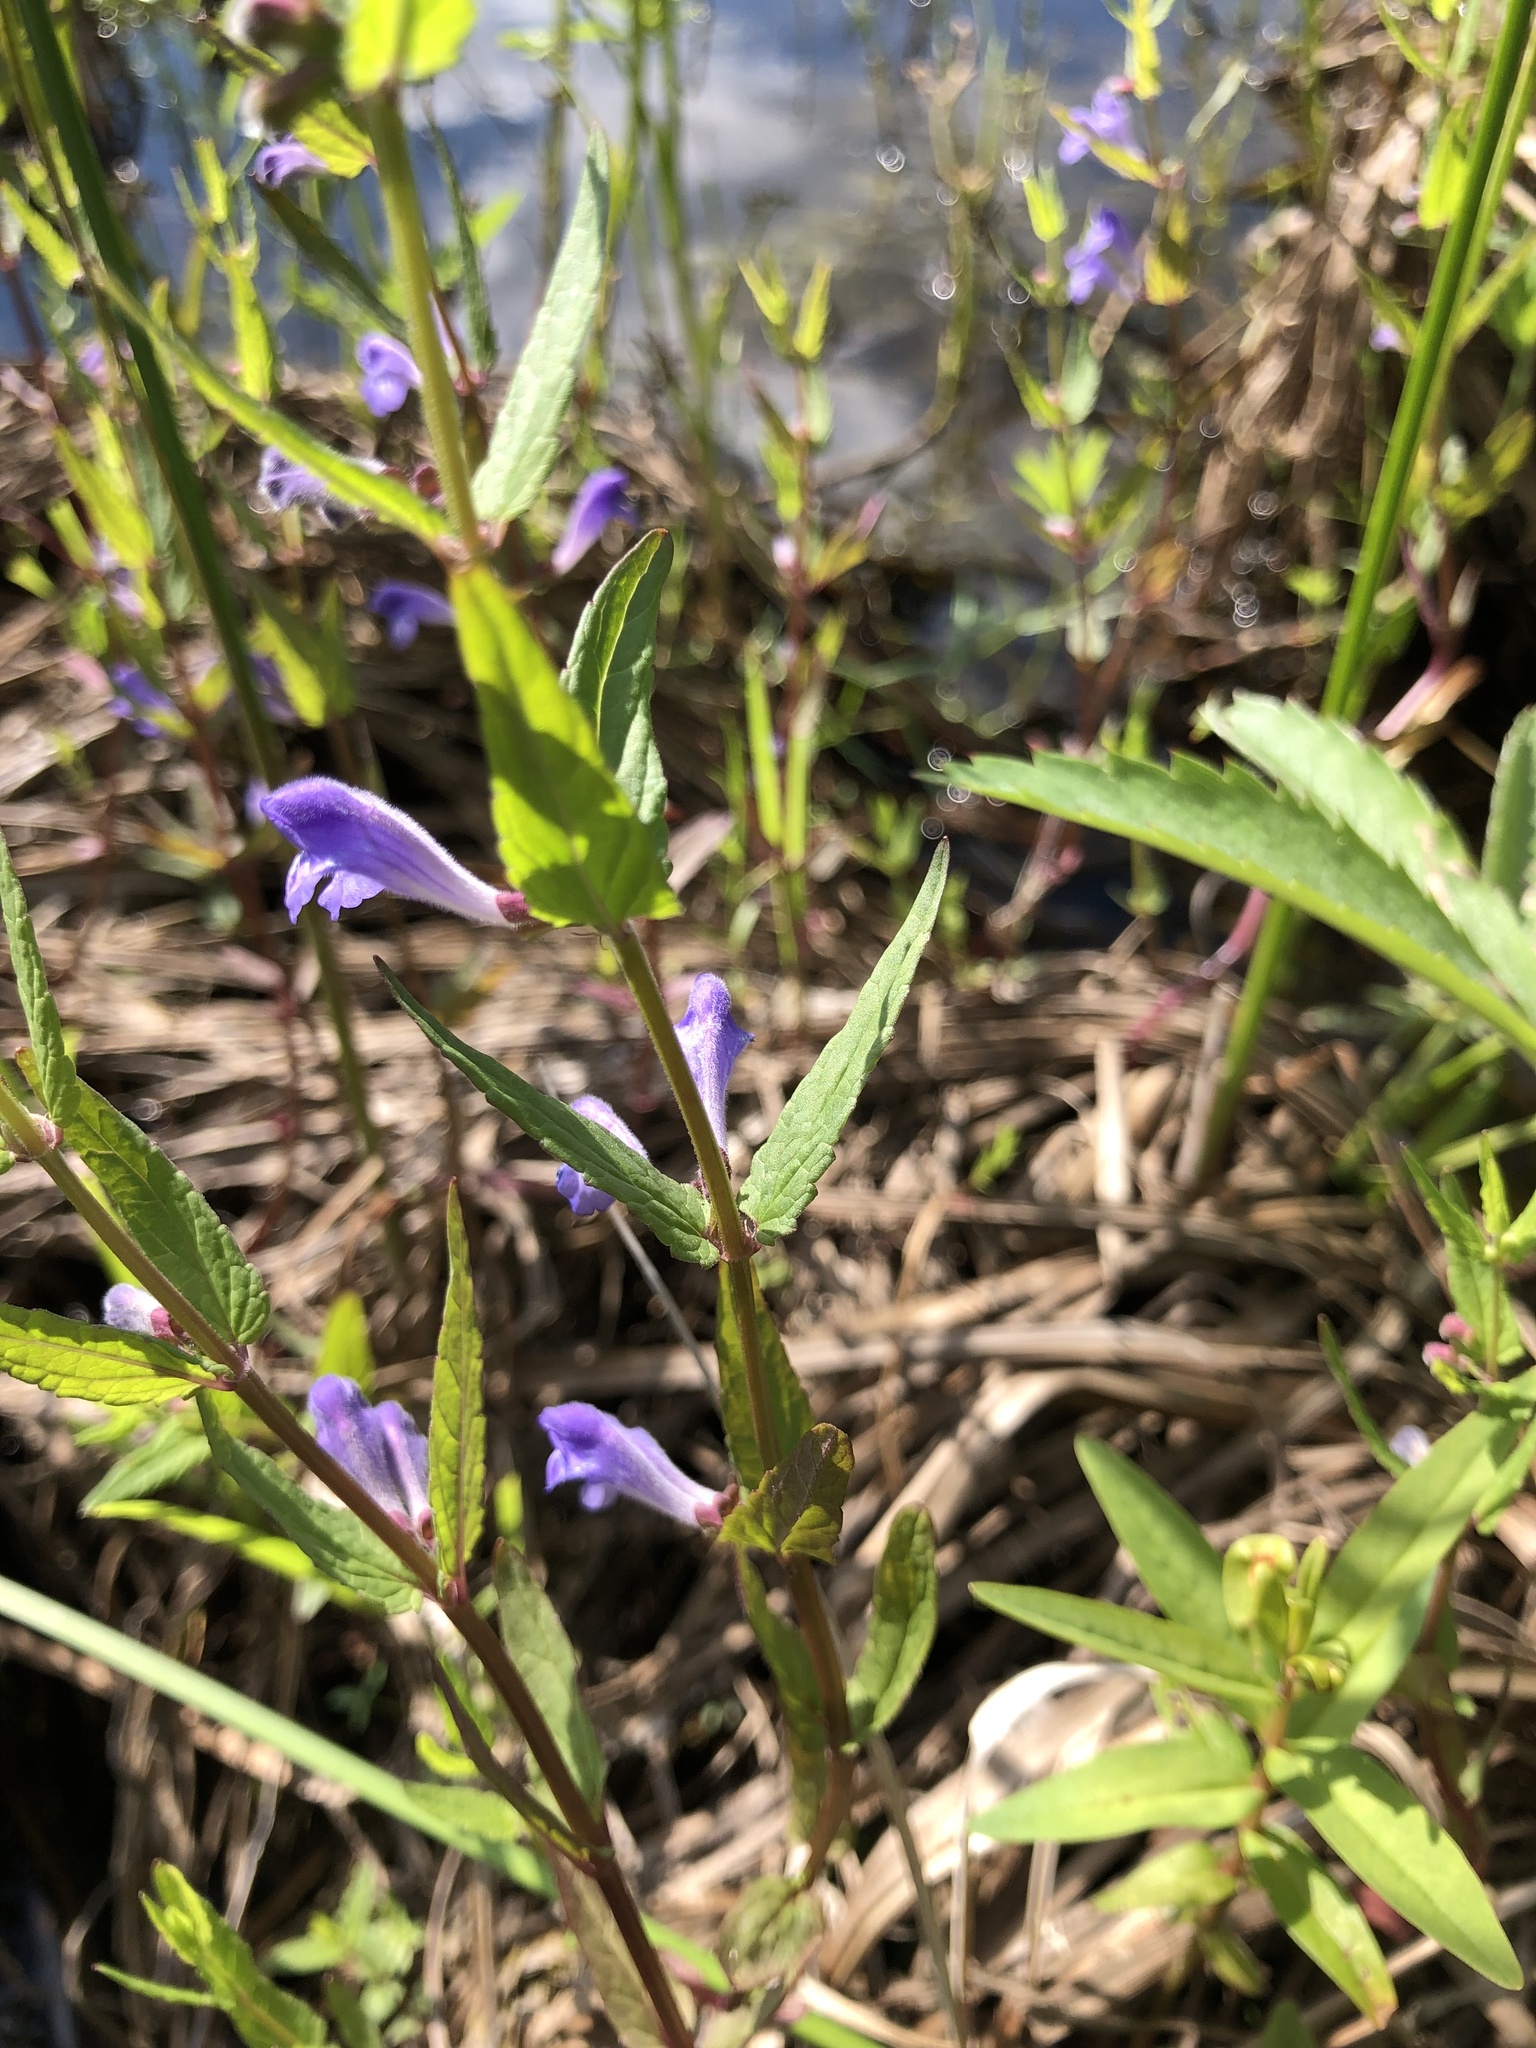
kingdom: Plantae
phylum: Tracheophyta
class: Magnoliopsida
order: Lamiales
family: Lamiaceae
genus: Scutellaria
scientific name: Scutellaria galericulata
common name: Skullcap
